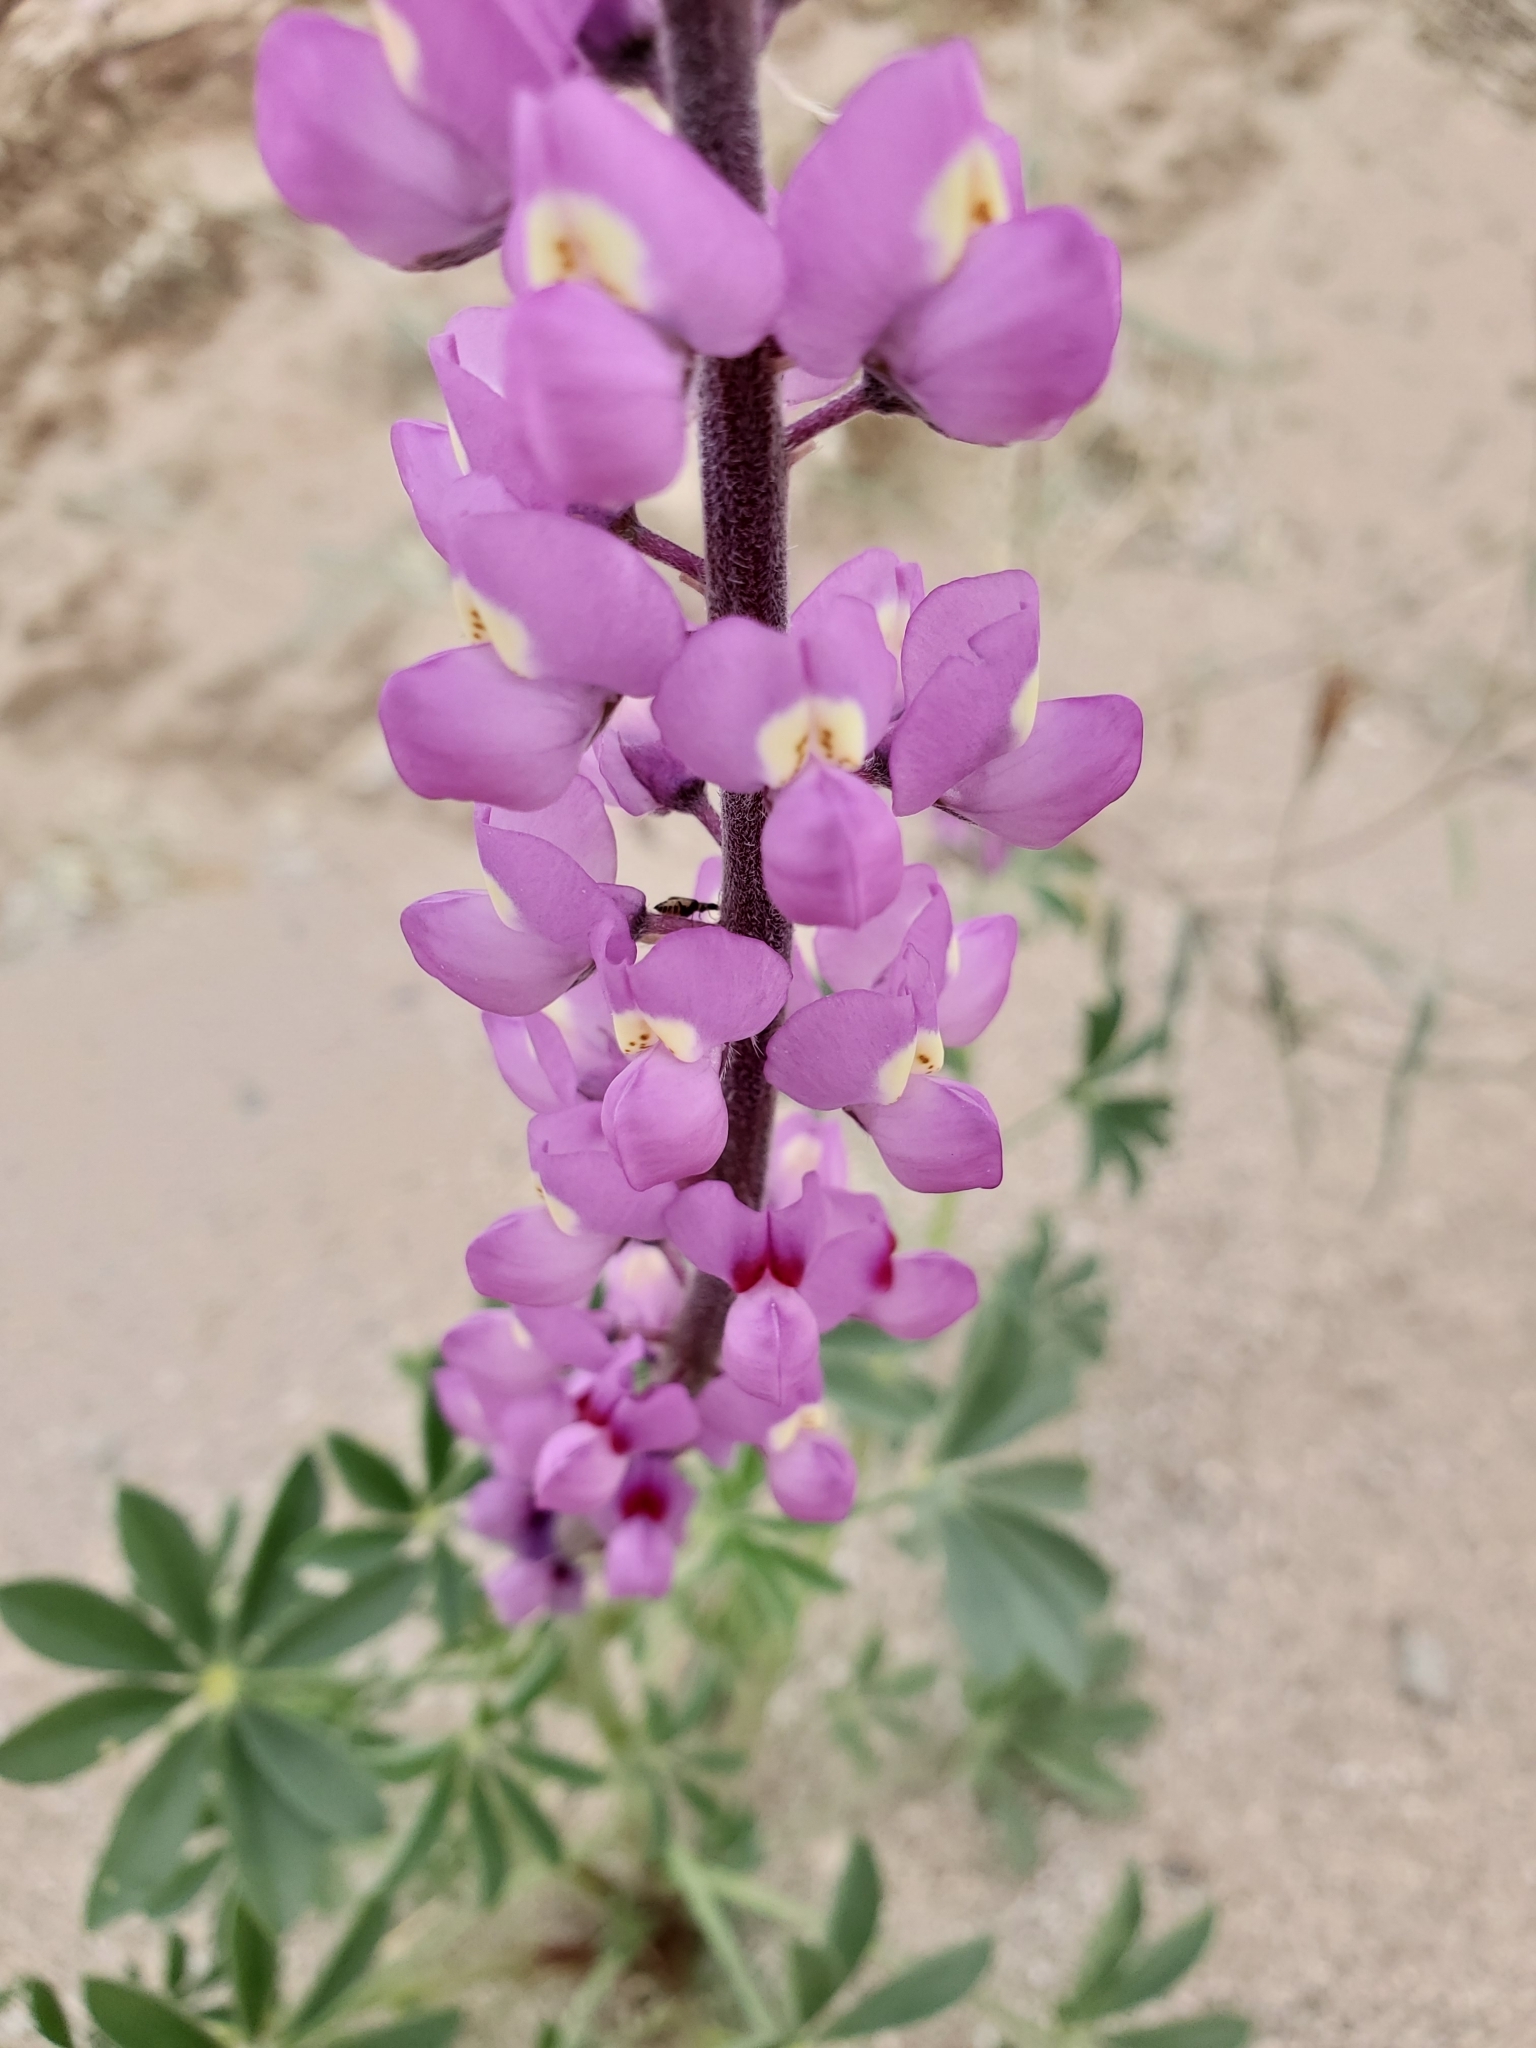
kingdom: Plantae
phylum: Tracheophyta
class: Magnoliopsida
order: Fabales
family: Fabaceae
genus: Lupinus
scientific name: Lupinus arizonicus
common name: Arizona lupine
